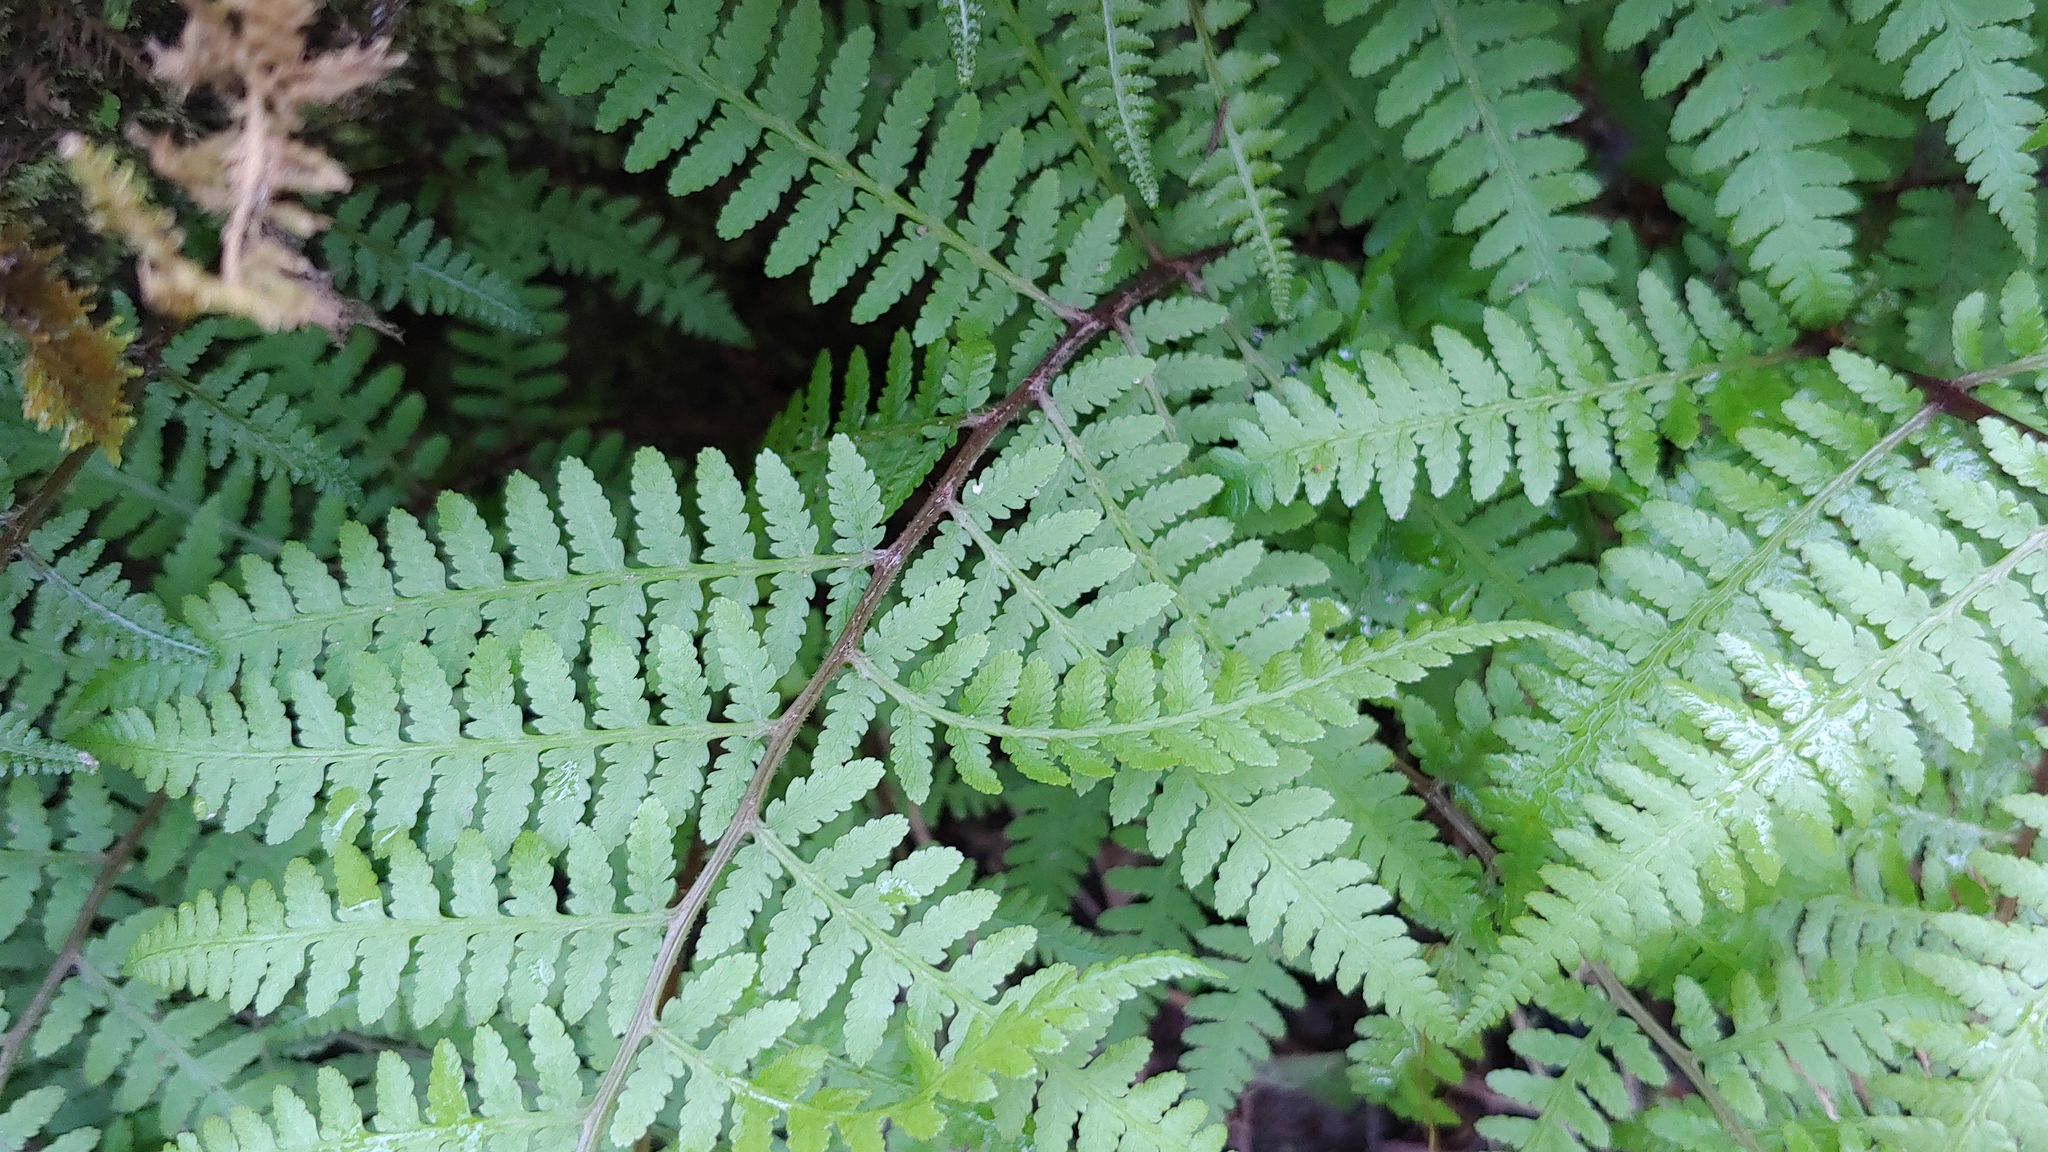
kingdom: Plantae
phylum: Tracheophyta
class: Polypodiopsida
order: Polypodiales
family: Athyriaceae
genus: Athyrium
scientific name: Athyrium asplenioides
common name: Southern lady fern
